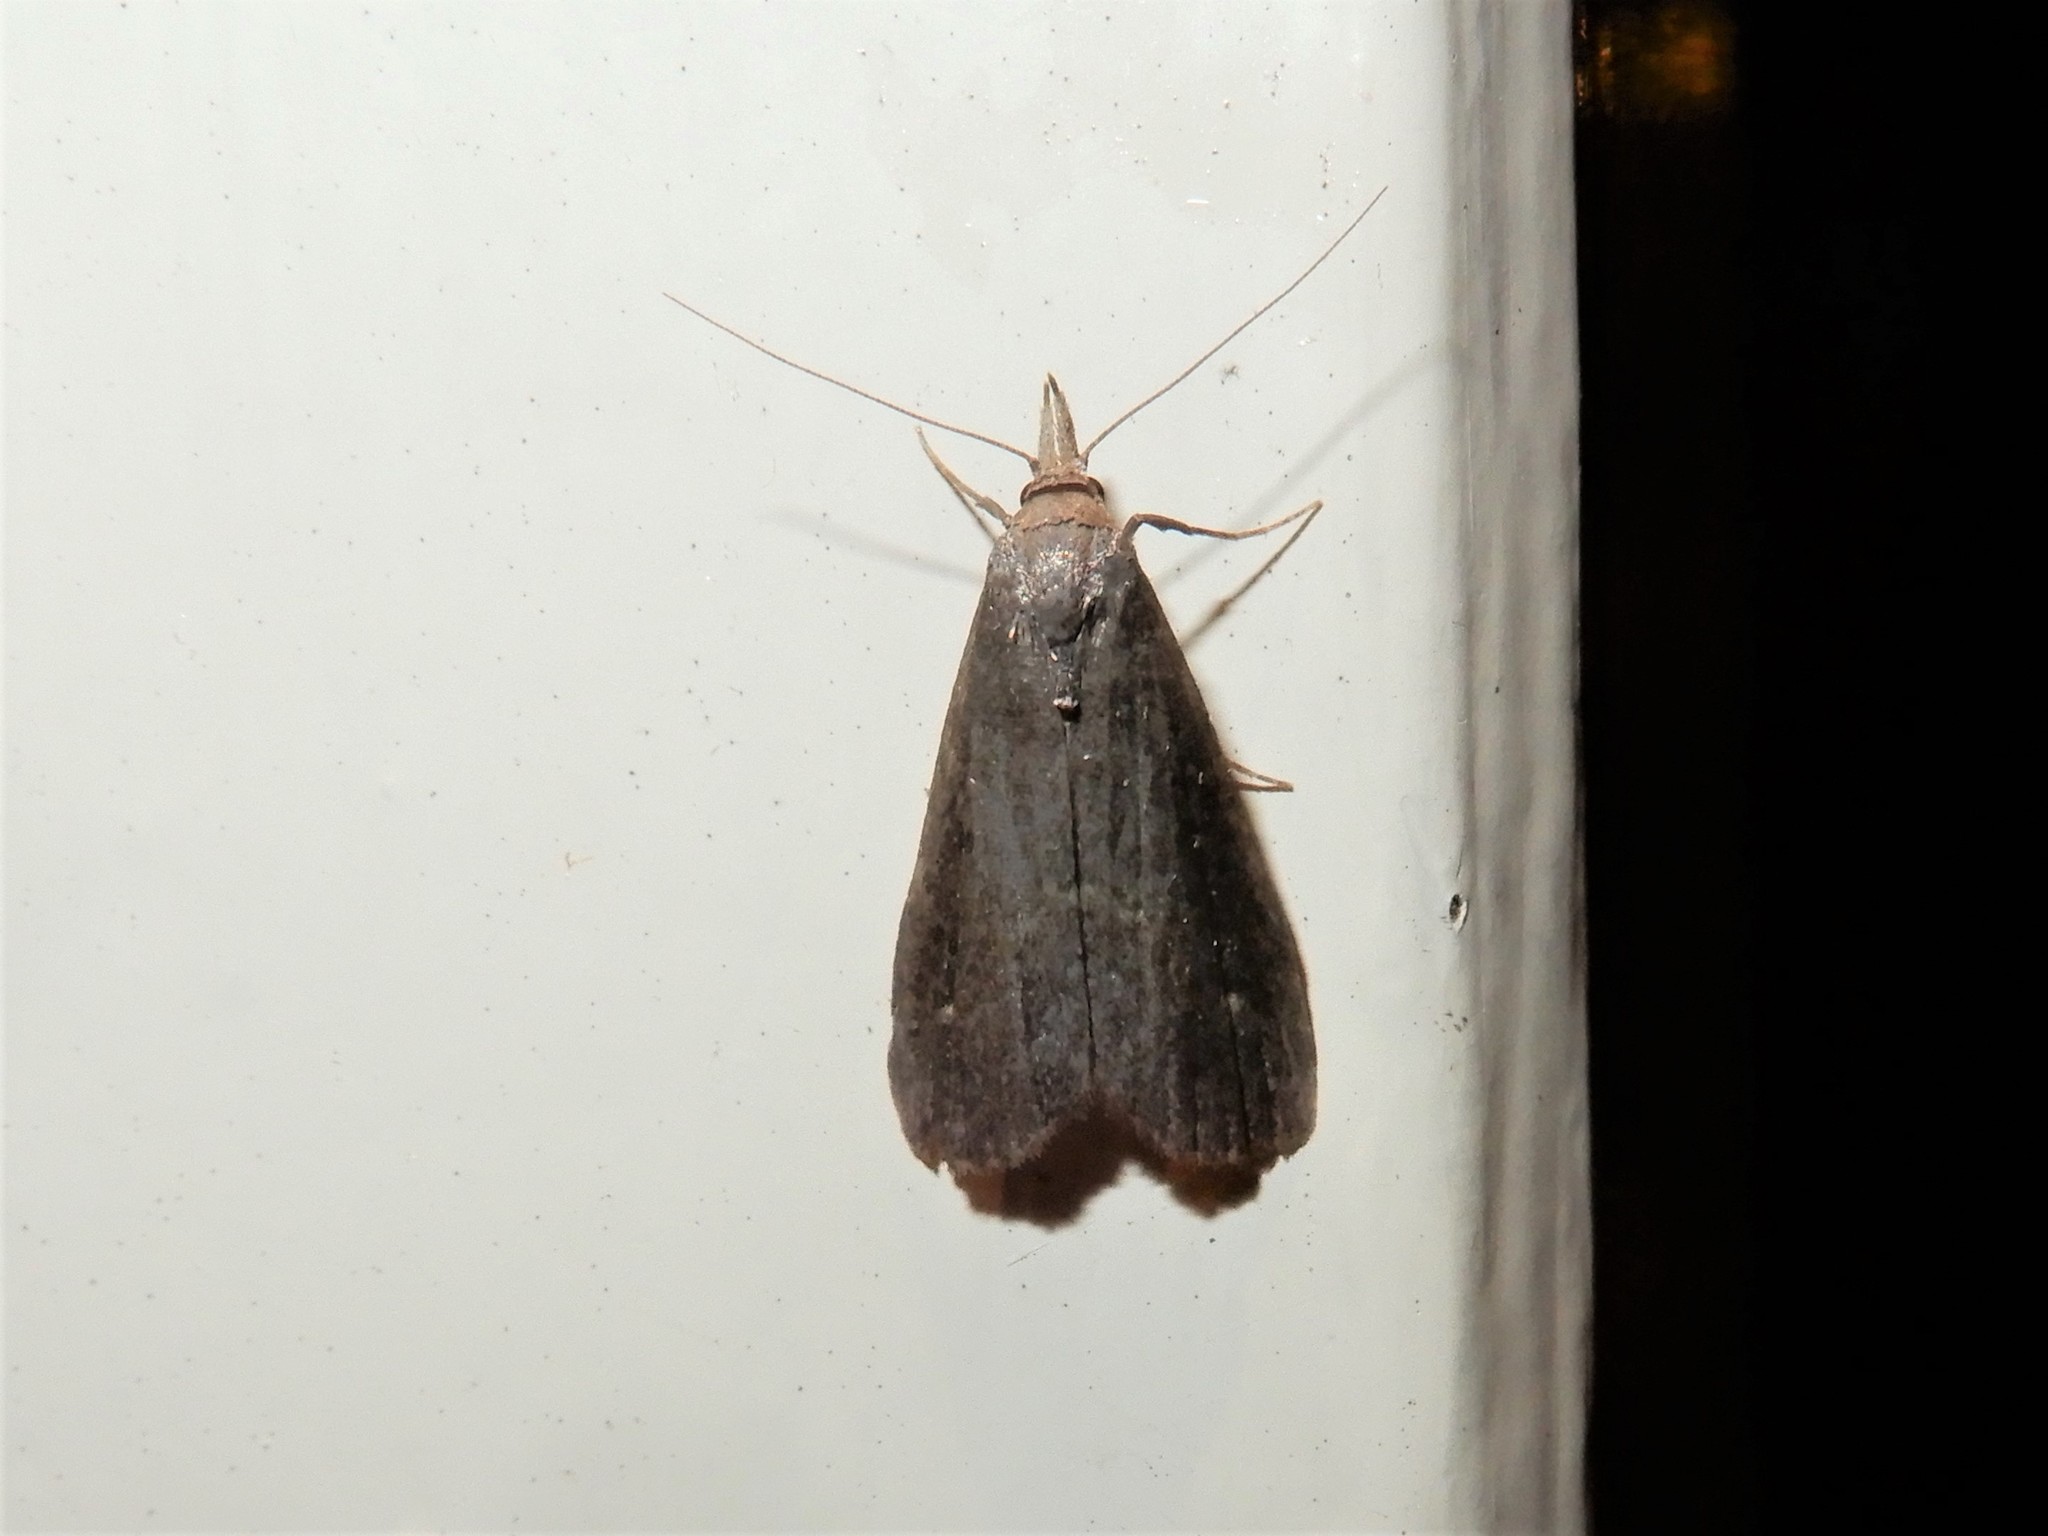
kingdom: Animalia
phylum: Arthropoda
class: Insecta
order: Lepidoptera
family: Erebidae
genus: Schrankia
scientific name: Schrankia costaestrigalis
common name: Pinion-streaked snout
